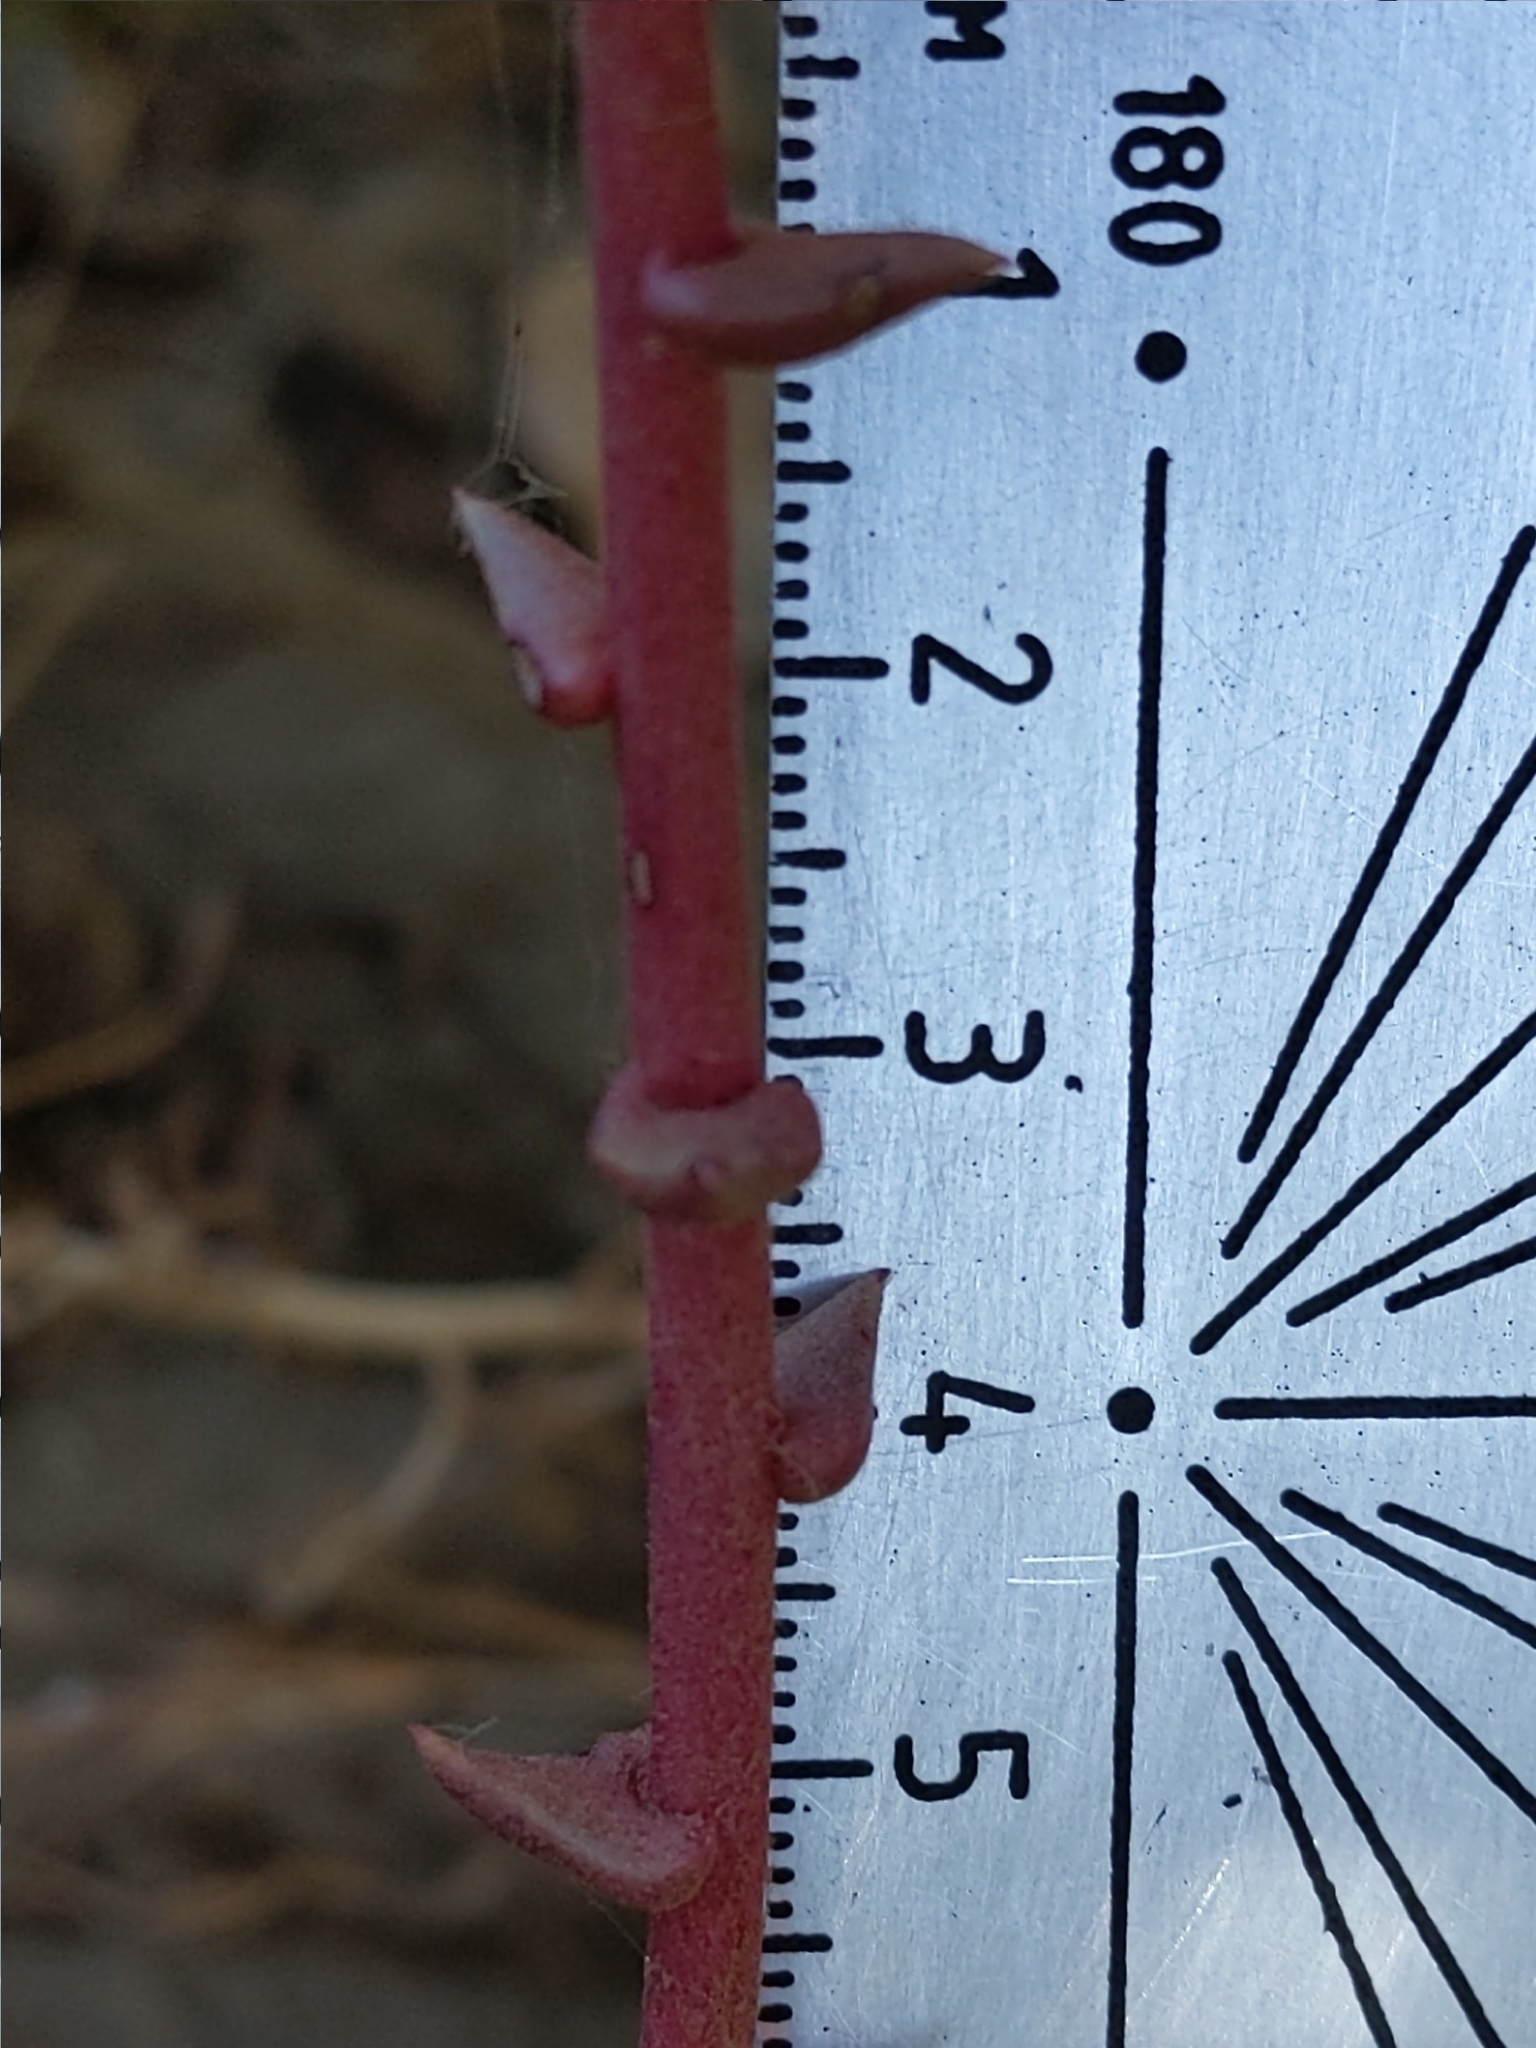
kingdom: Plantae
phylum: Tracheophyta
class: Magnoliopsida
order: Saxifragales
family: Crassulaceae
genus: Dudleya
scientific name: Dudleya lanceolata
